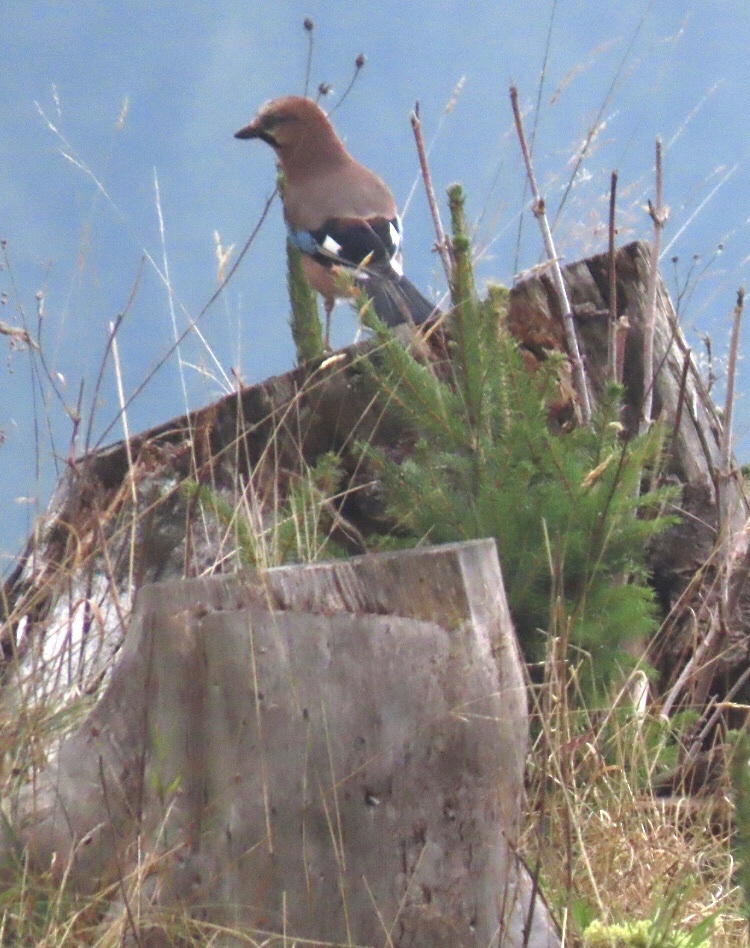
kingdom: Animalia
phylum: Chordata
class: Aves
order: Passeriformes
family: Corvidae
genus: Garrulus
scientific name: Garrulus glandarius
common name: Eurasian jay
